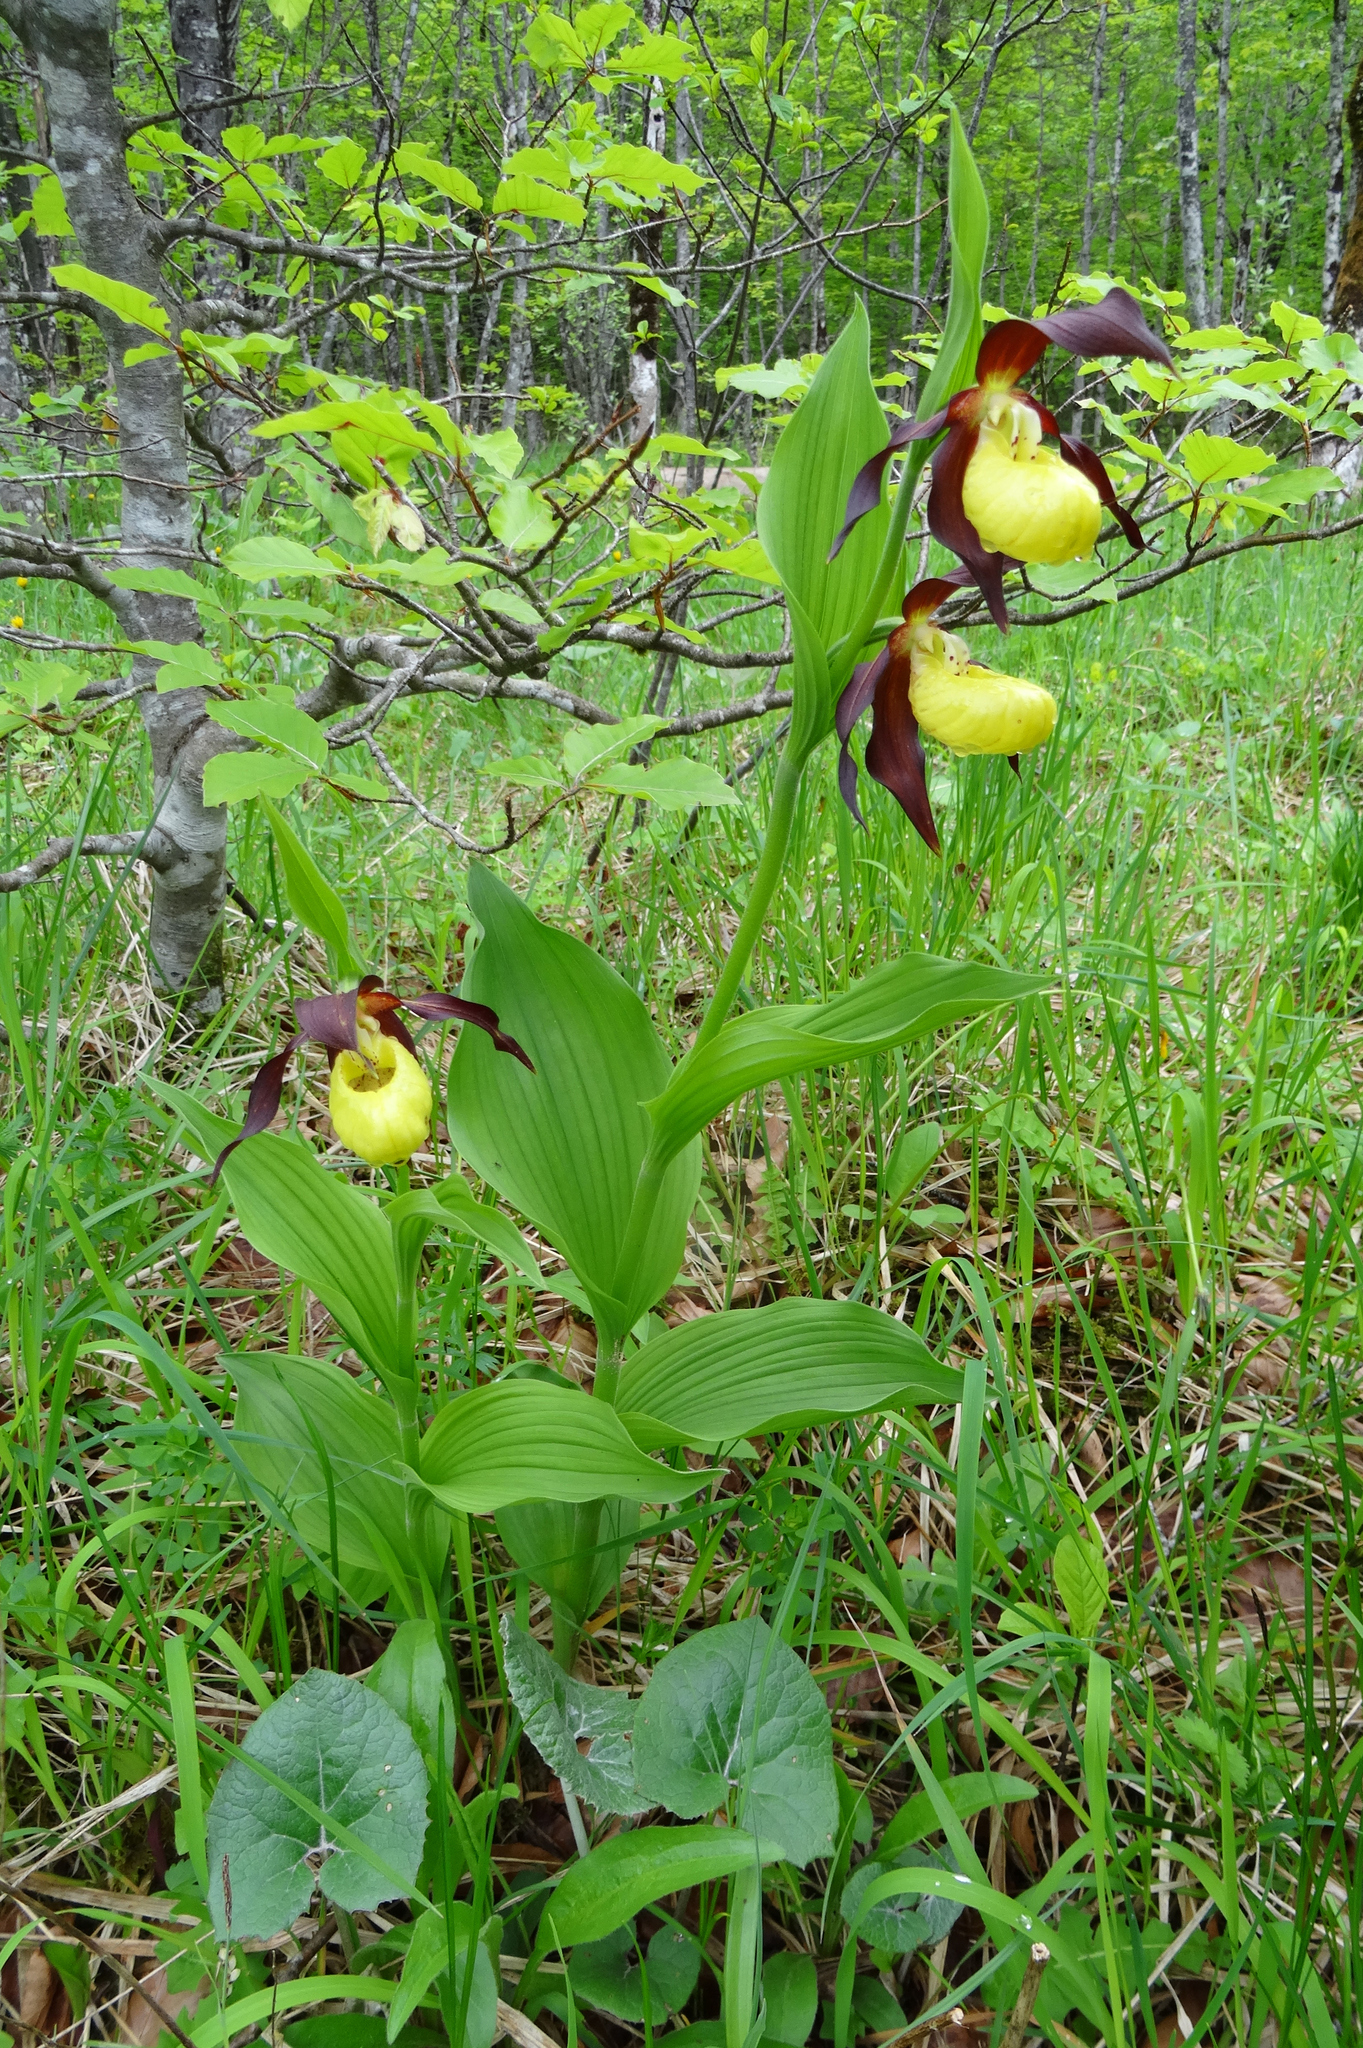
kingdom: Plantae
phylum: Tracheophyta
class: Liliopsida
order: Asparagales
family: Orchidaceae
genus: Cypripedium
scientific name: Cypripedium calceolus
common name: Lady's-slipper
